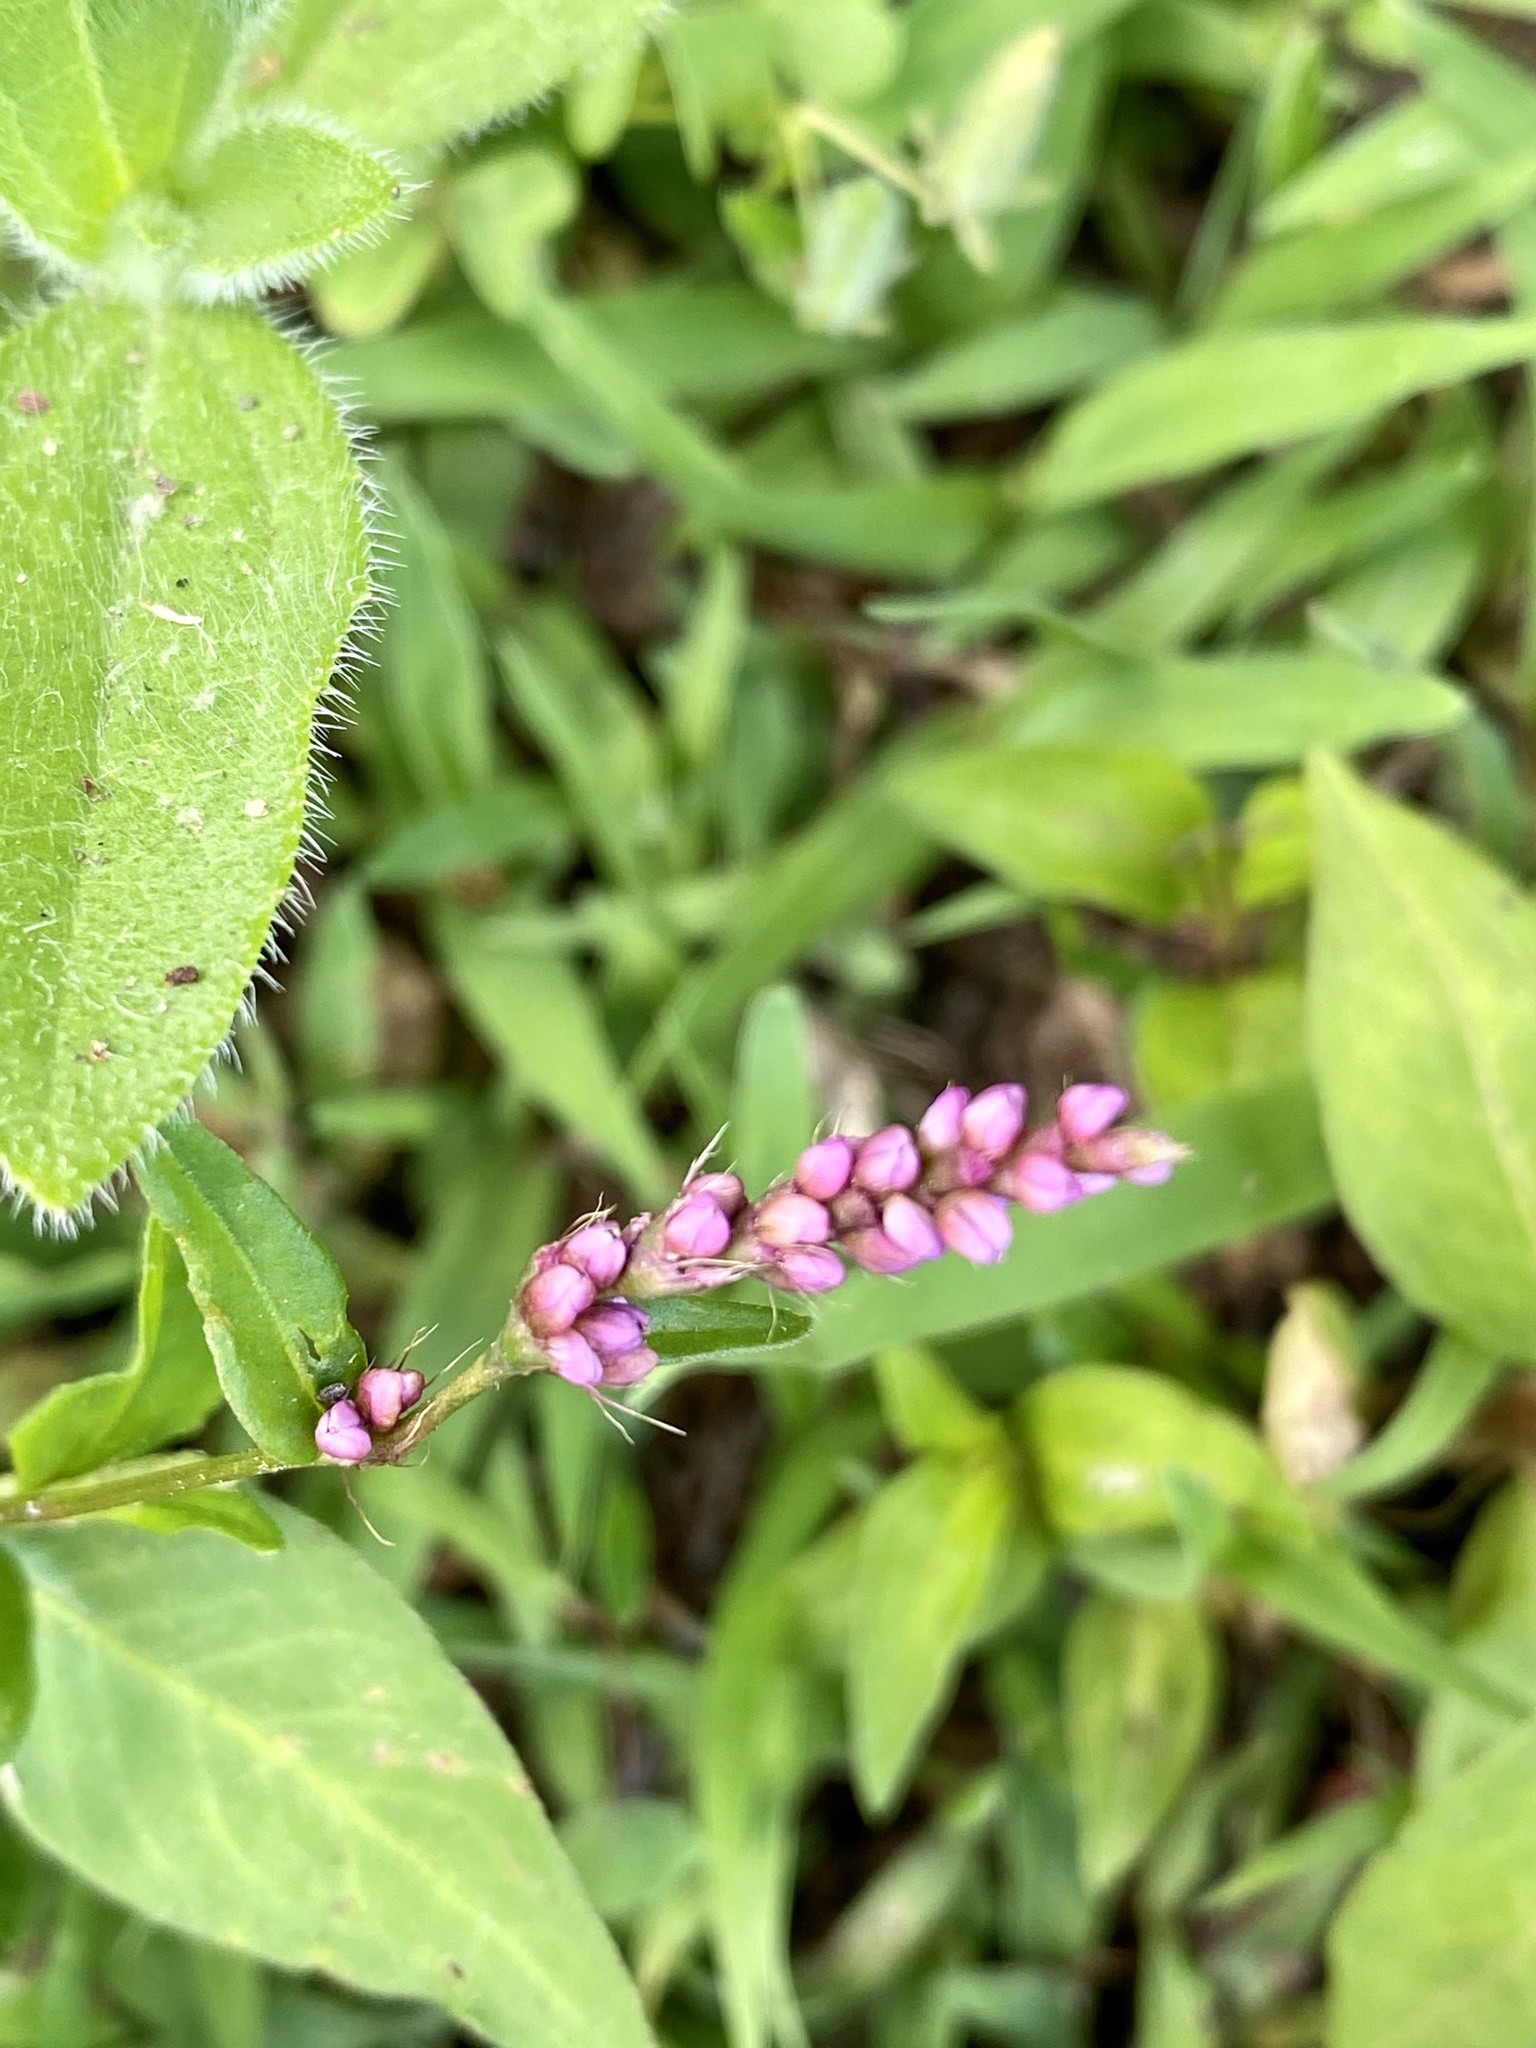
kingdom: Plantae
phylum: Tracheophyta
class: Magnoliopsida
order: Caryophyllales
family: Polygonaceae
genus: Persicaria
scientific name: Persicaria longiseta
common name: Bristly lady's-thumb
